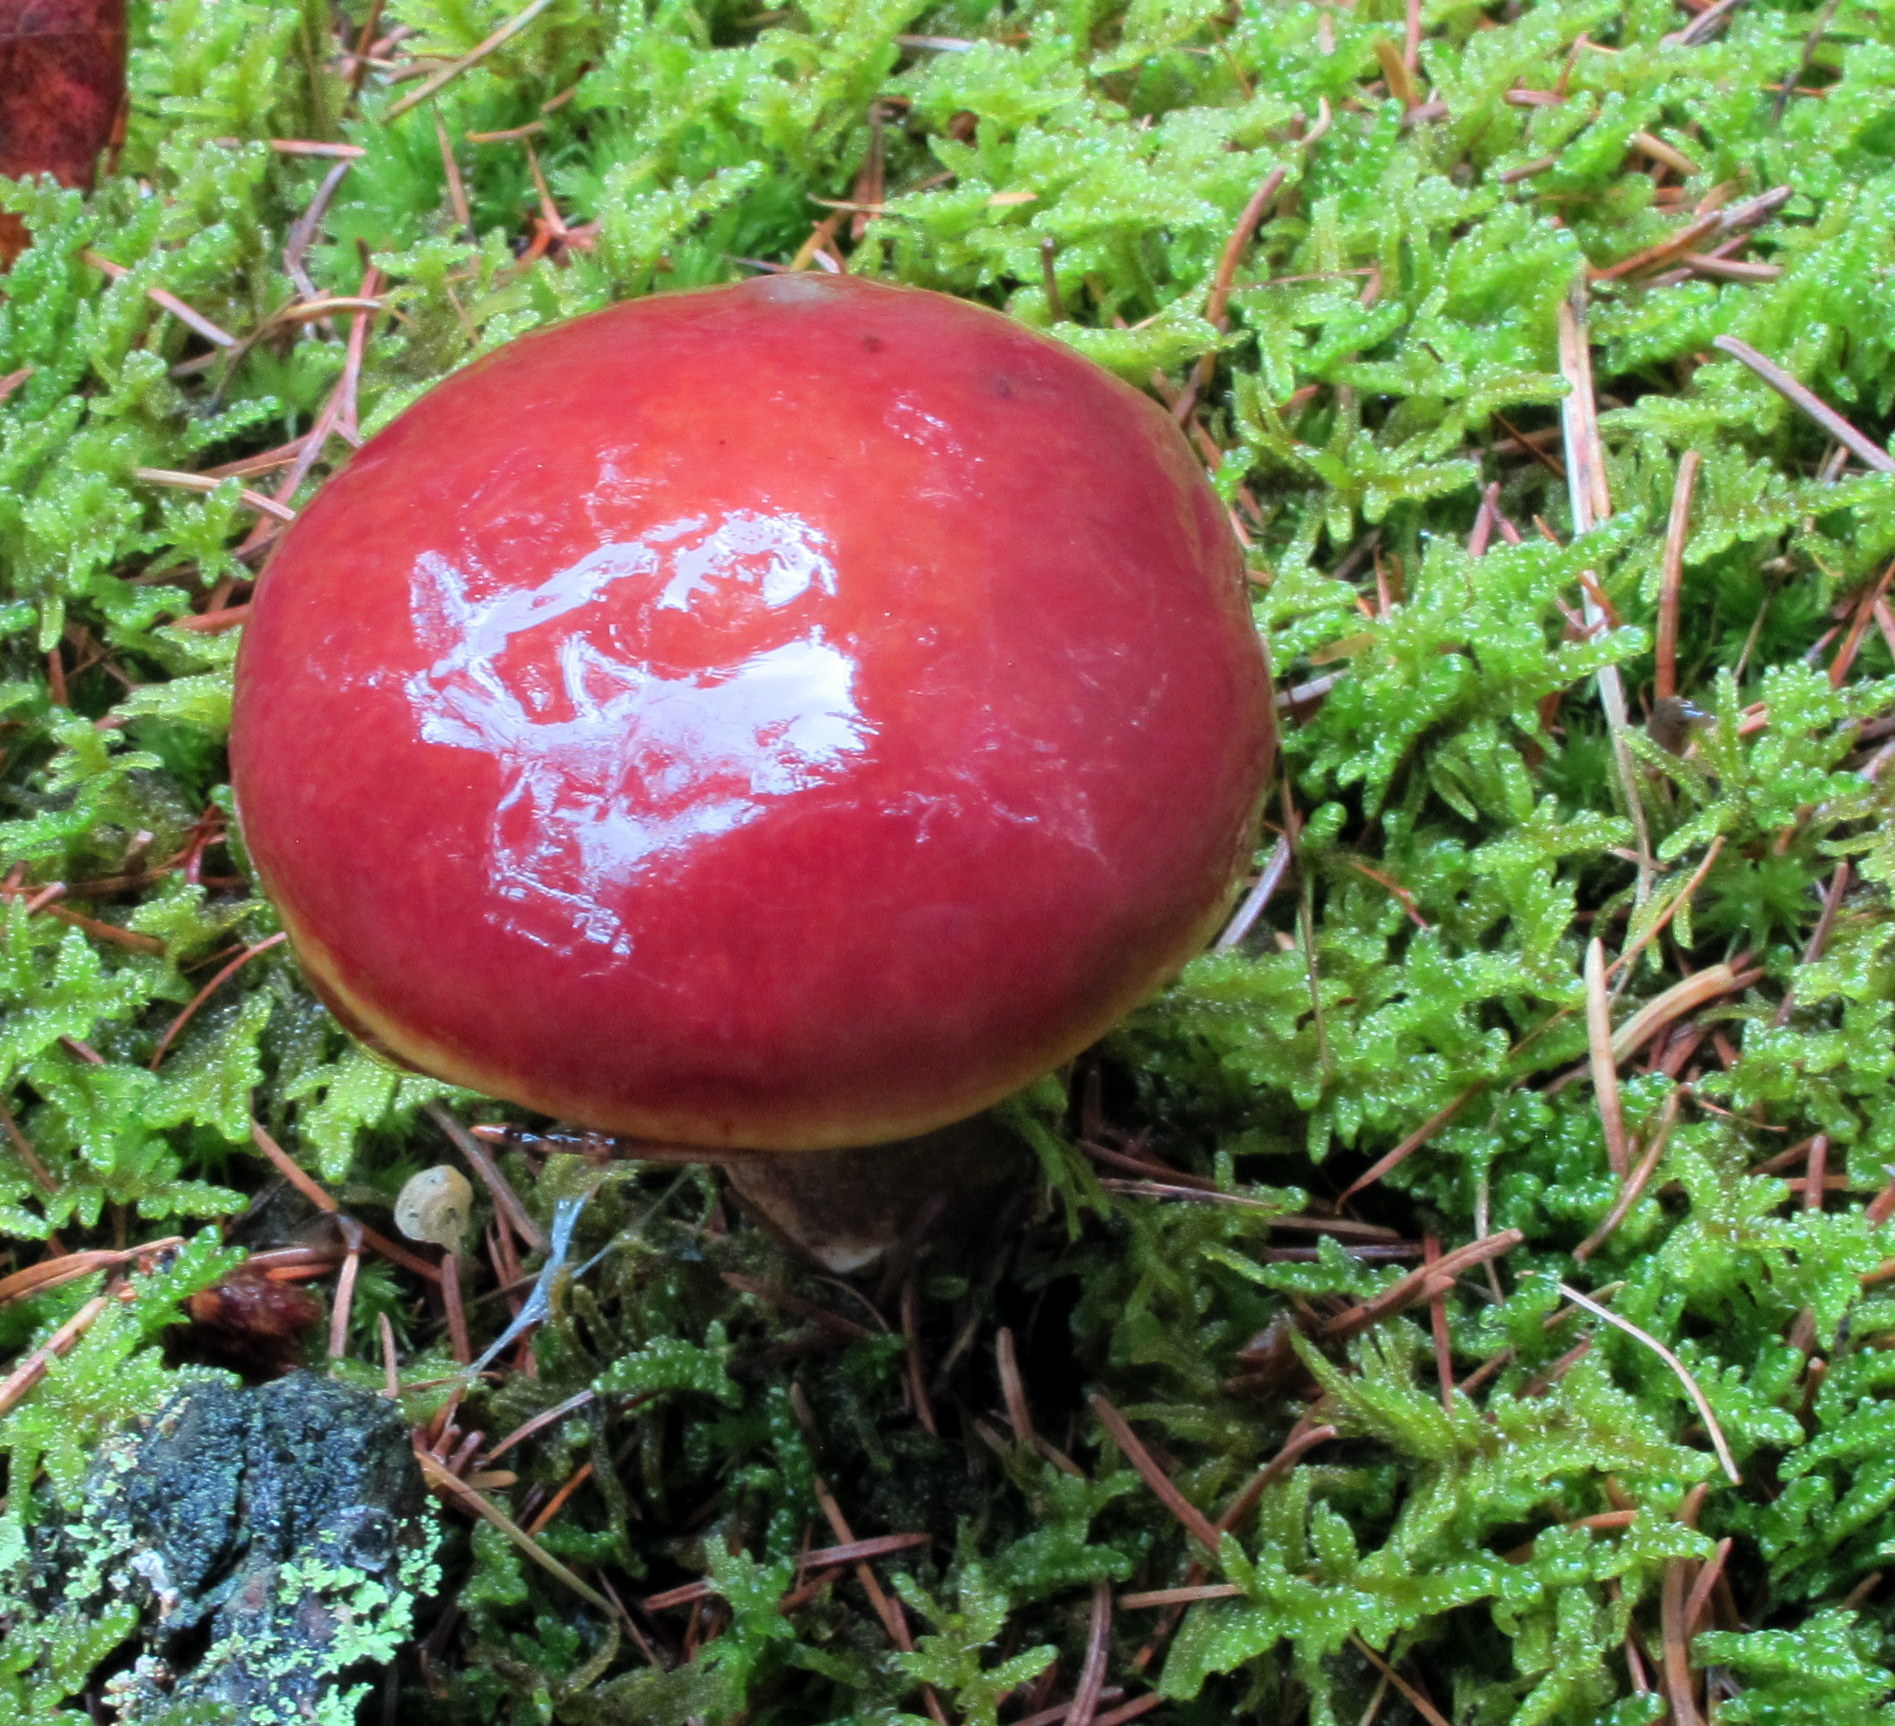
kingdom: Fungi
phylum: Basidiomycota
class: Agaricomycetes
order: Boletales
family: Suillaceae
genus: Suillus
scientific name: Suillus grevillei
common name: Larch bolete
